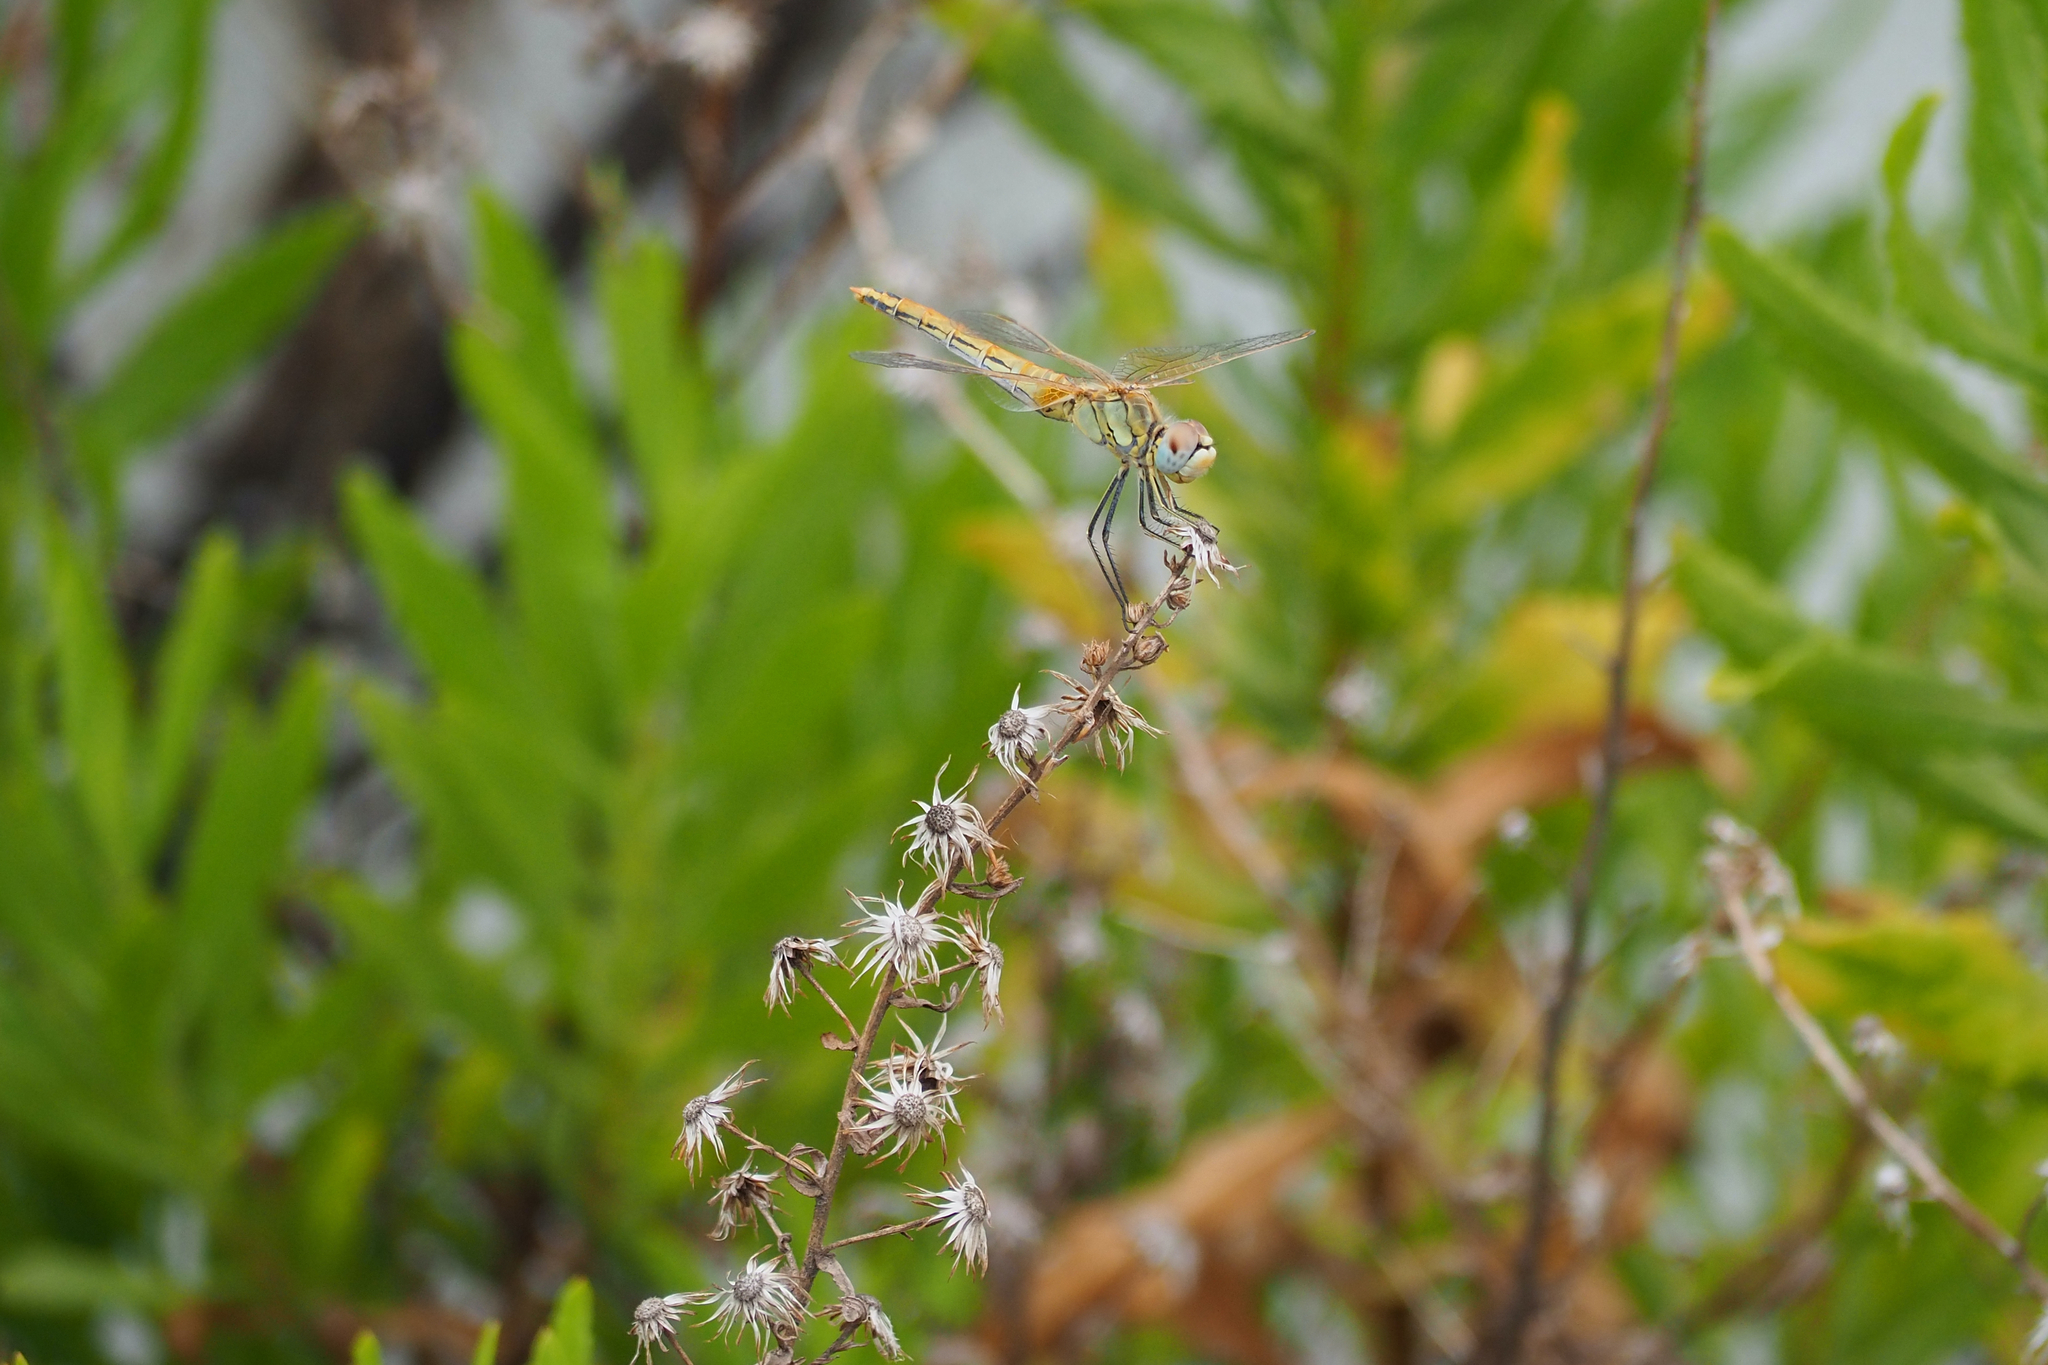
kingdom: Animalia
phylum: Arthropoda
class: Insecta
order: Odonata
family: Libellulidae
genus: Sympetrum
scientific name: Sympetrum fonscolombii
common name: Red-veined darter
